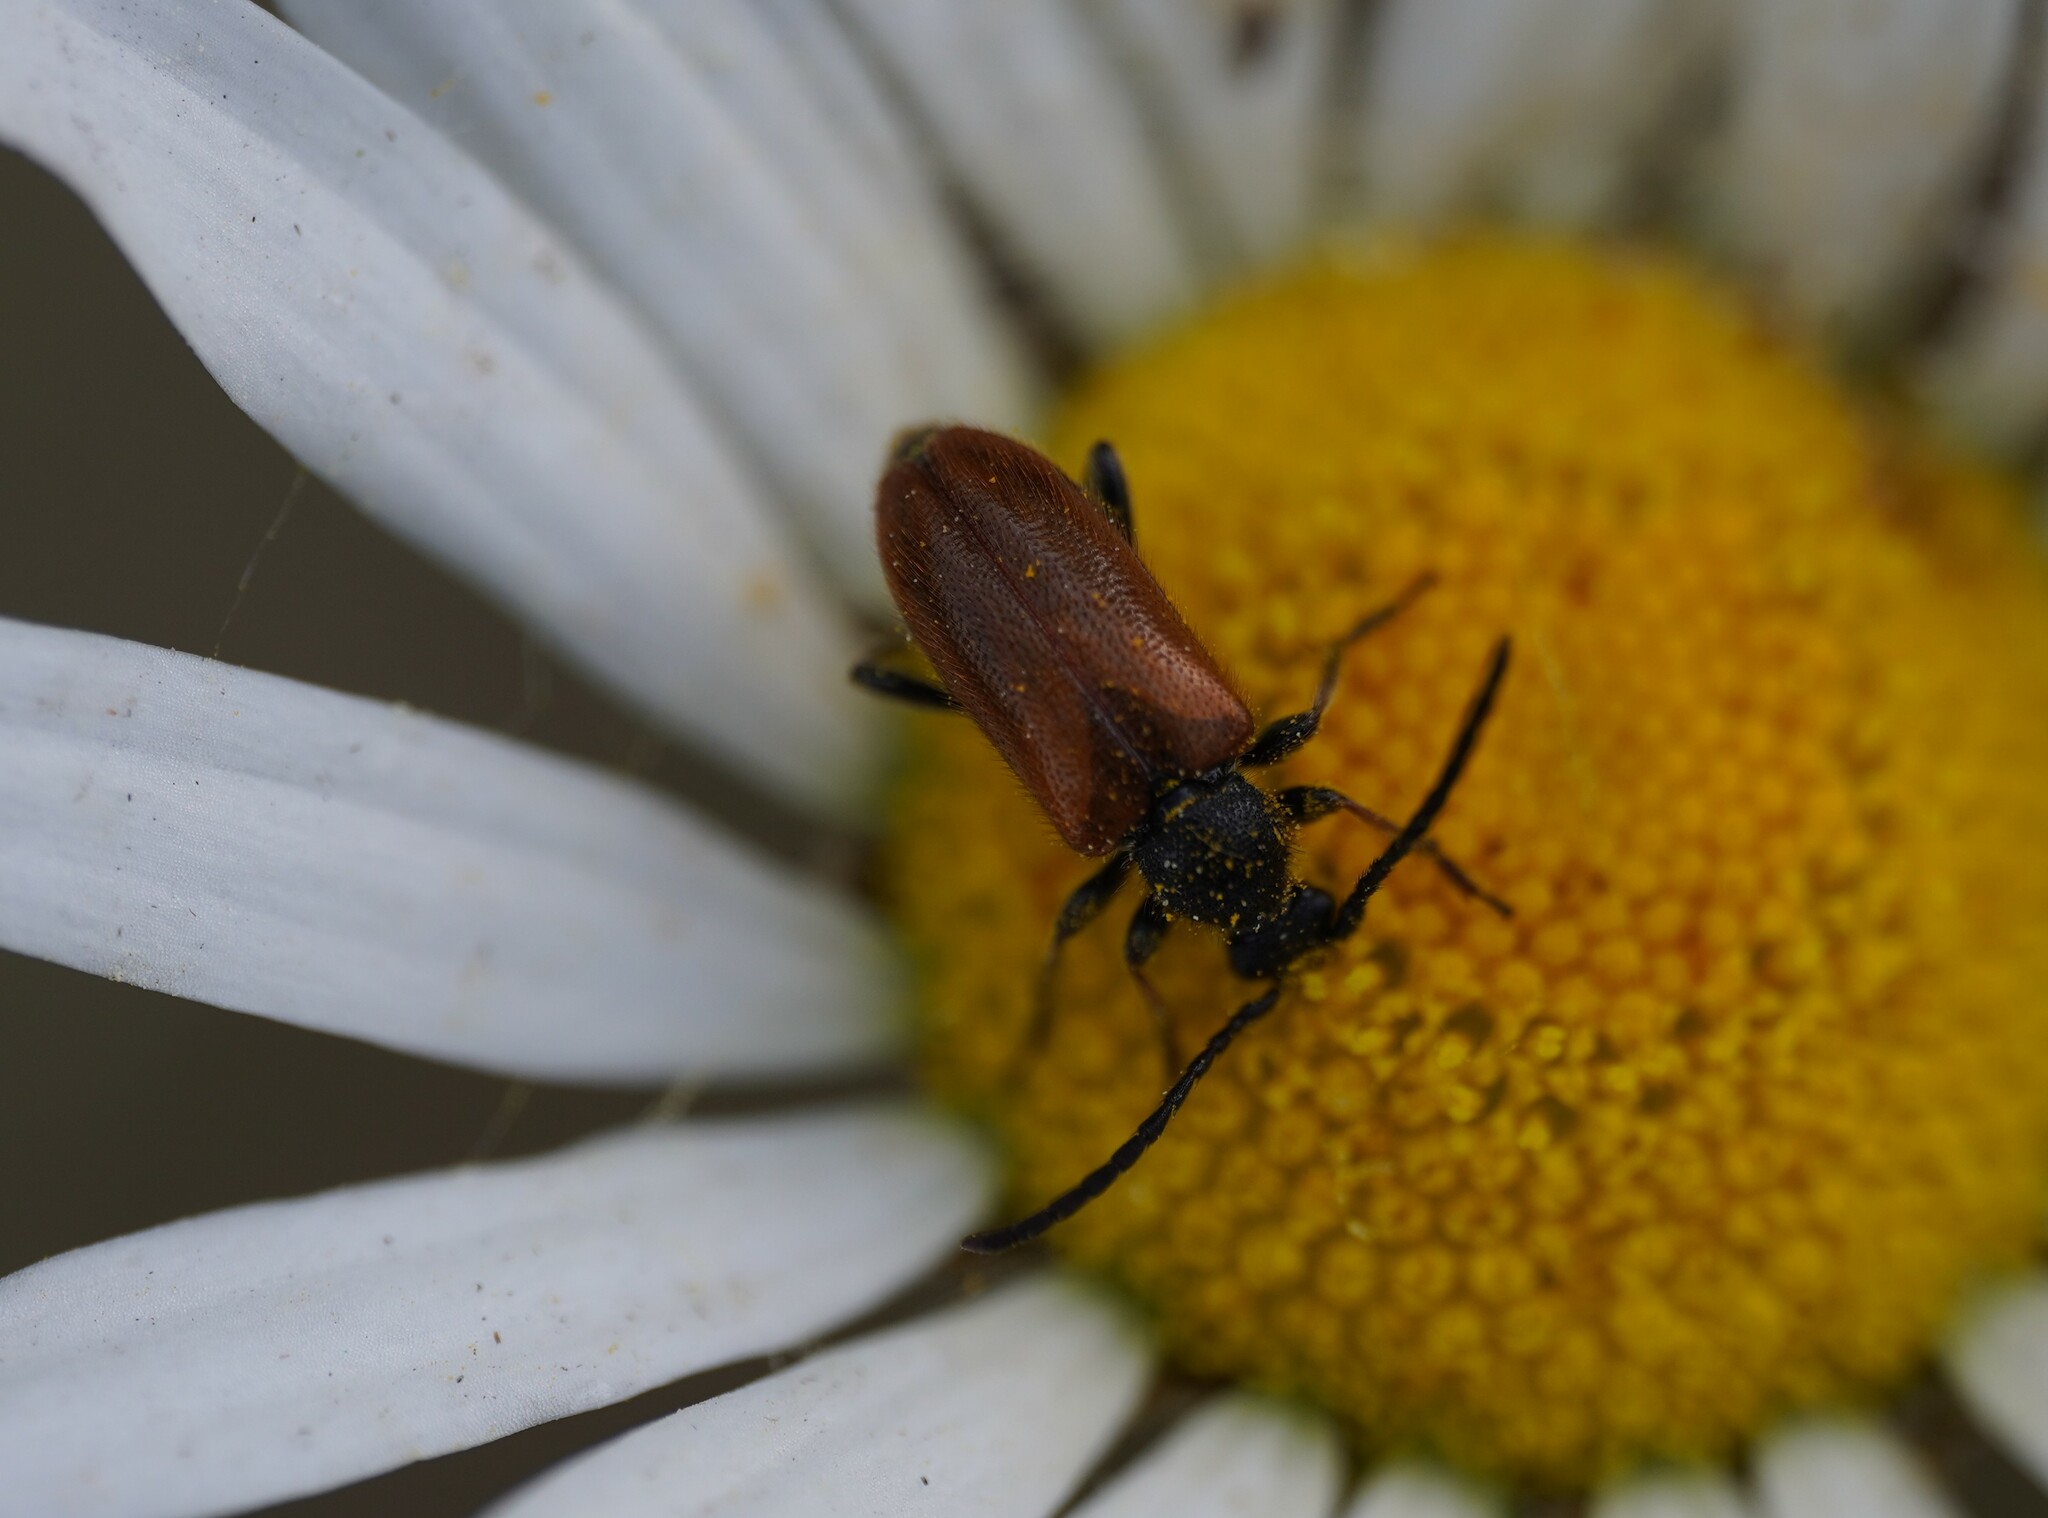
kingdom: Animalia
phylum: Arthropoda
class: Insecta
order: Coleoptera
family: Cerambycidae
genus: Pseudovadonia
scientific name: Pseudovadonia livida
